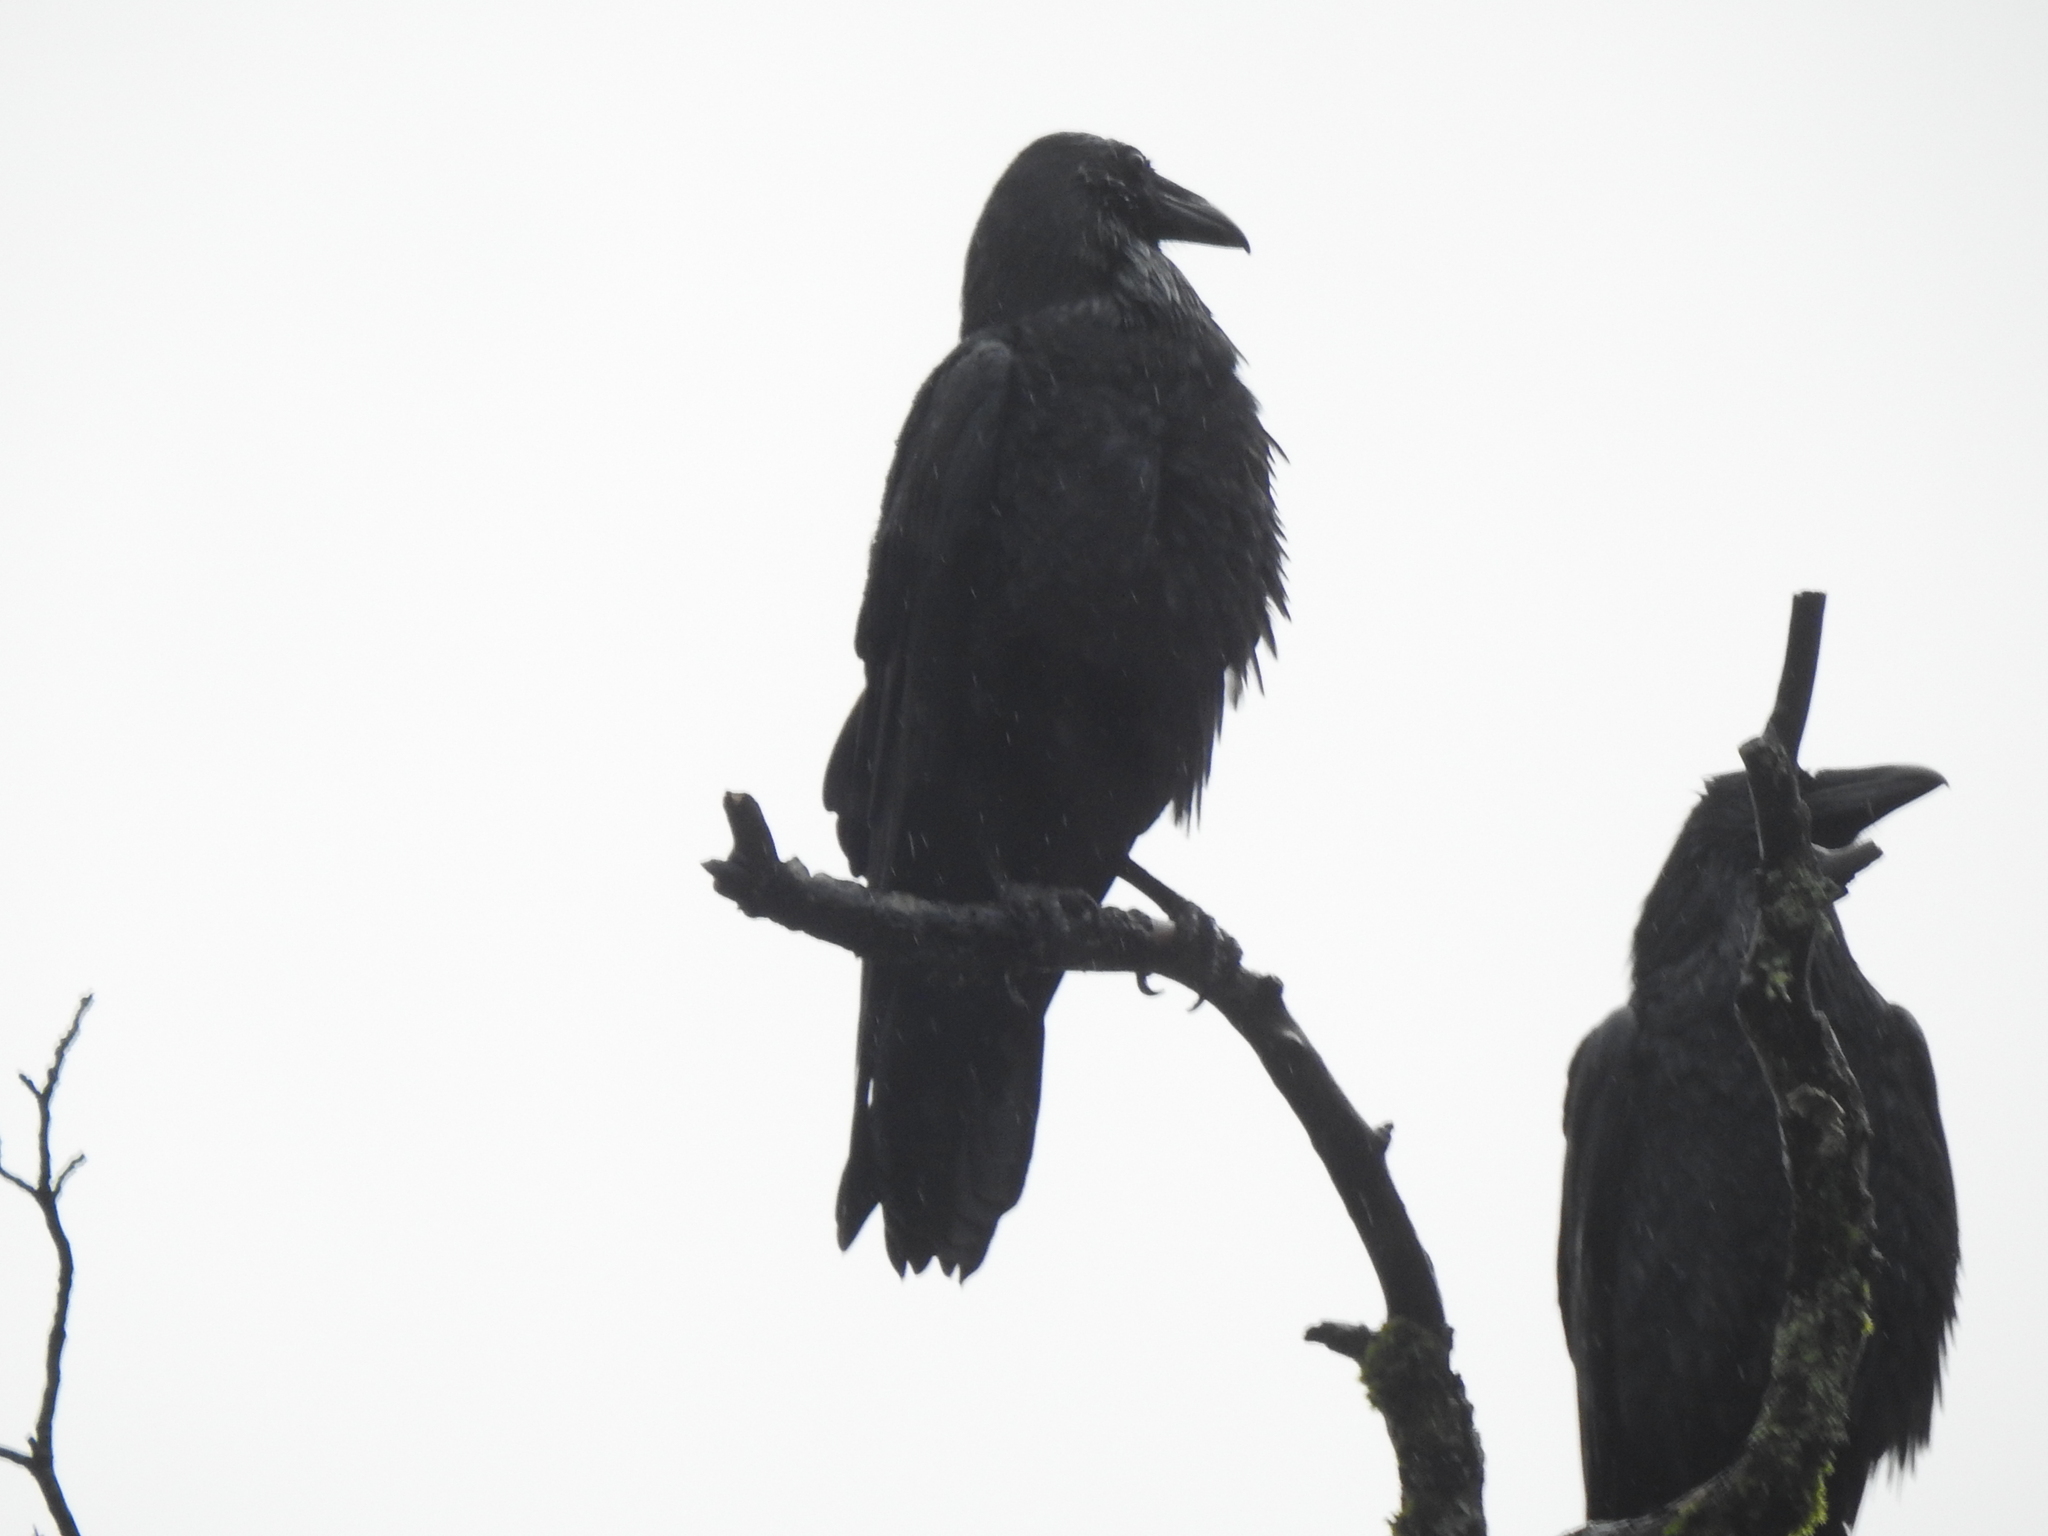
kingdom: Animalia
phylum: Chordata
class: Aves
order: Passeriformes
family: Corvidae
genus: Corvus
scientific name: Corvus corax
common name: Common raven
